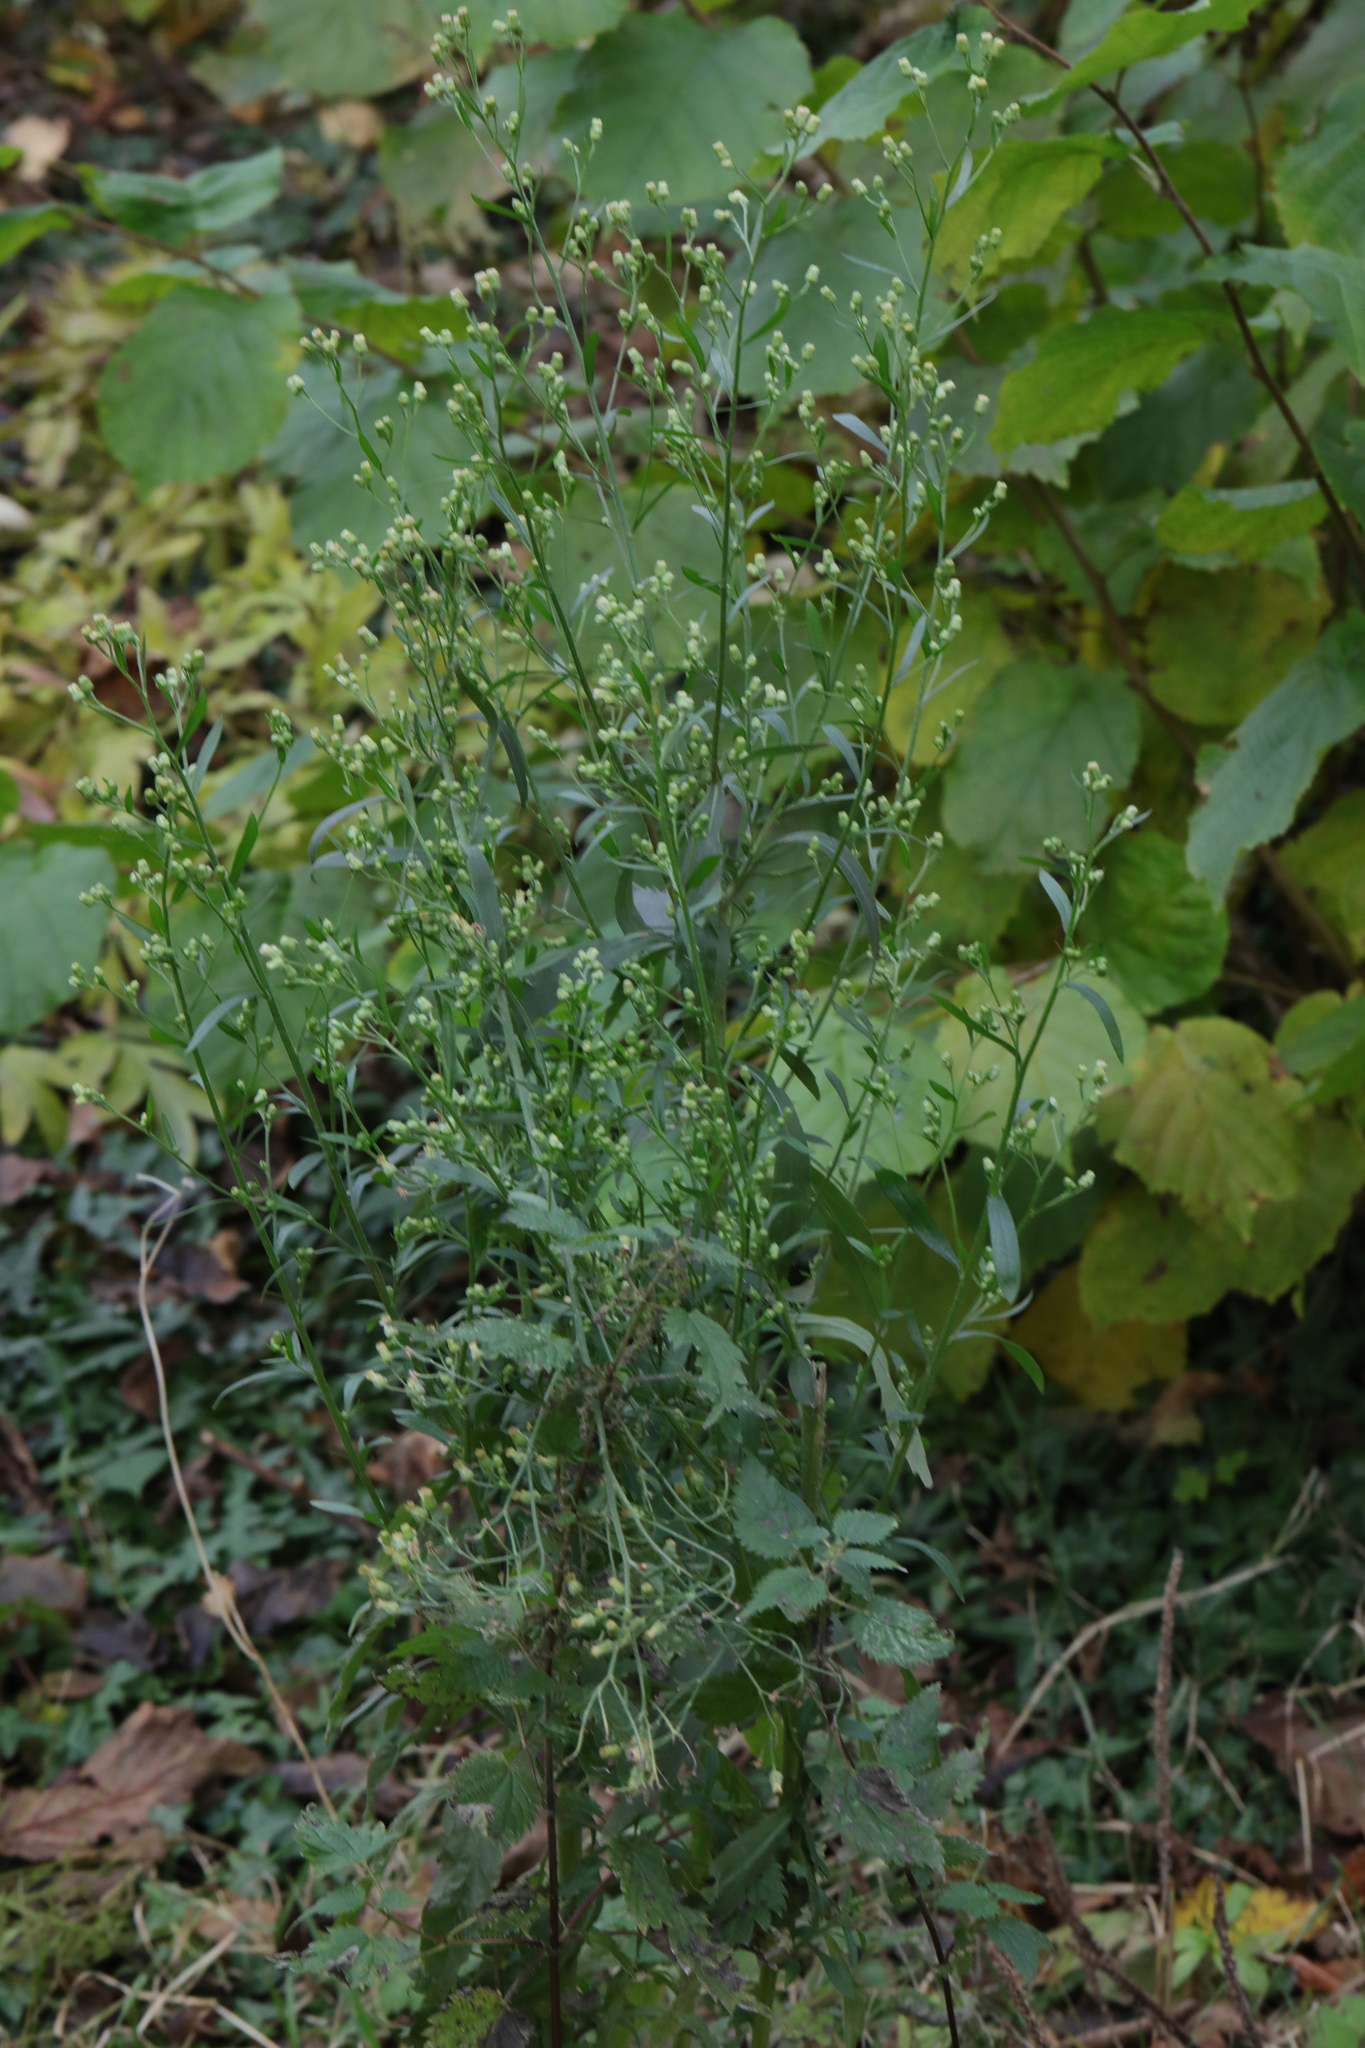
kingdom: Plantae
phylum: Tracheophyta
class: Magnoliopsida
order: Asterales
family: Asteraceae
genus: Erigeron
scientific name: Erigeron canadensis
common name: Canadian fleabane
